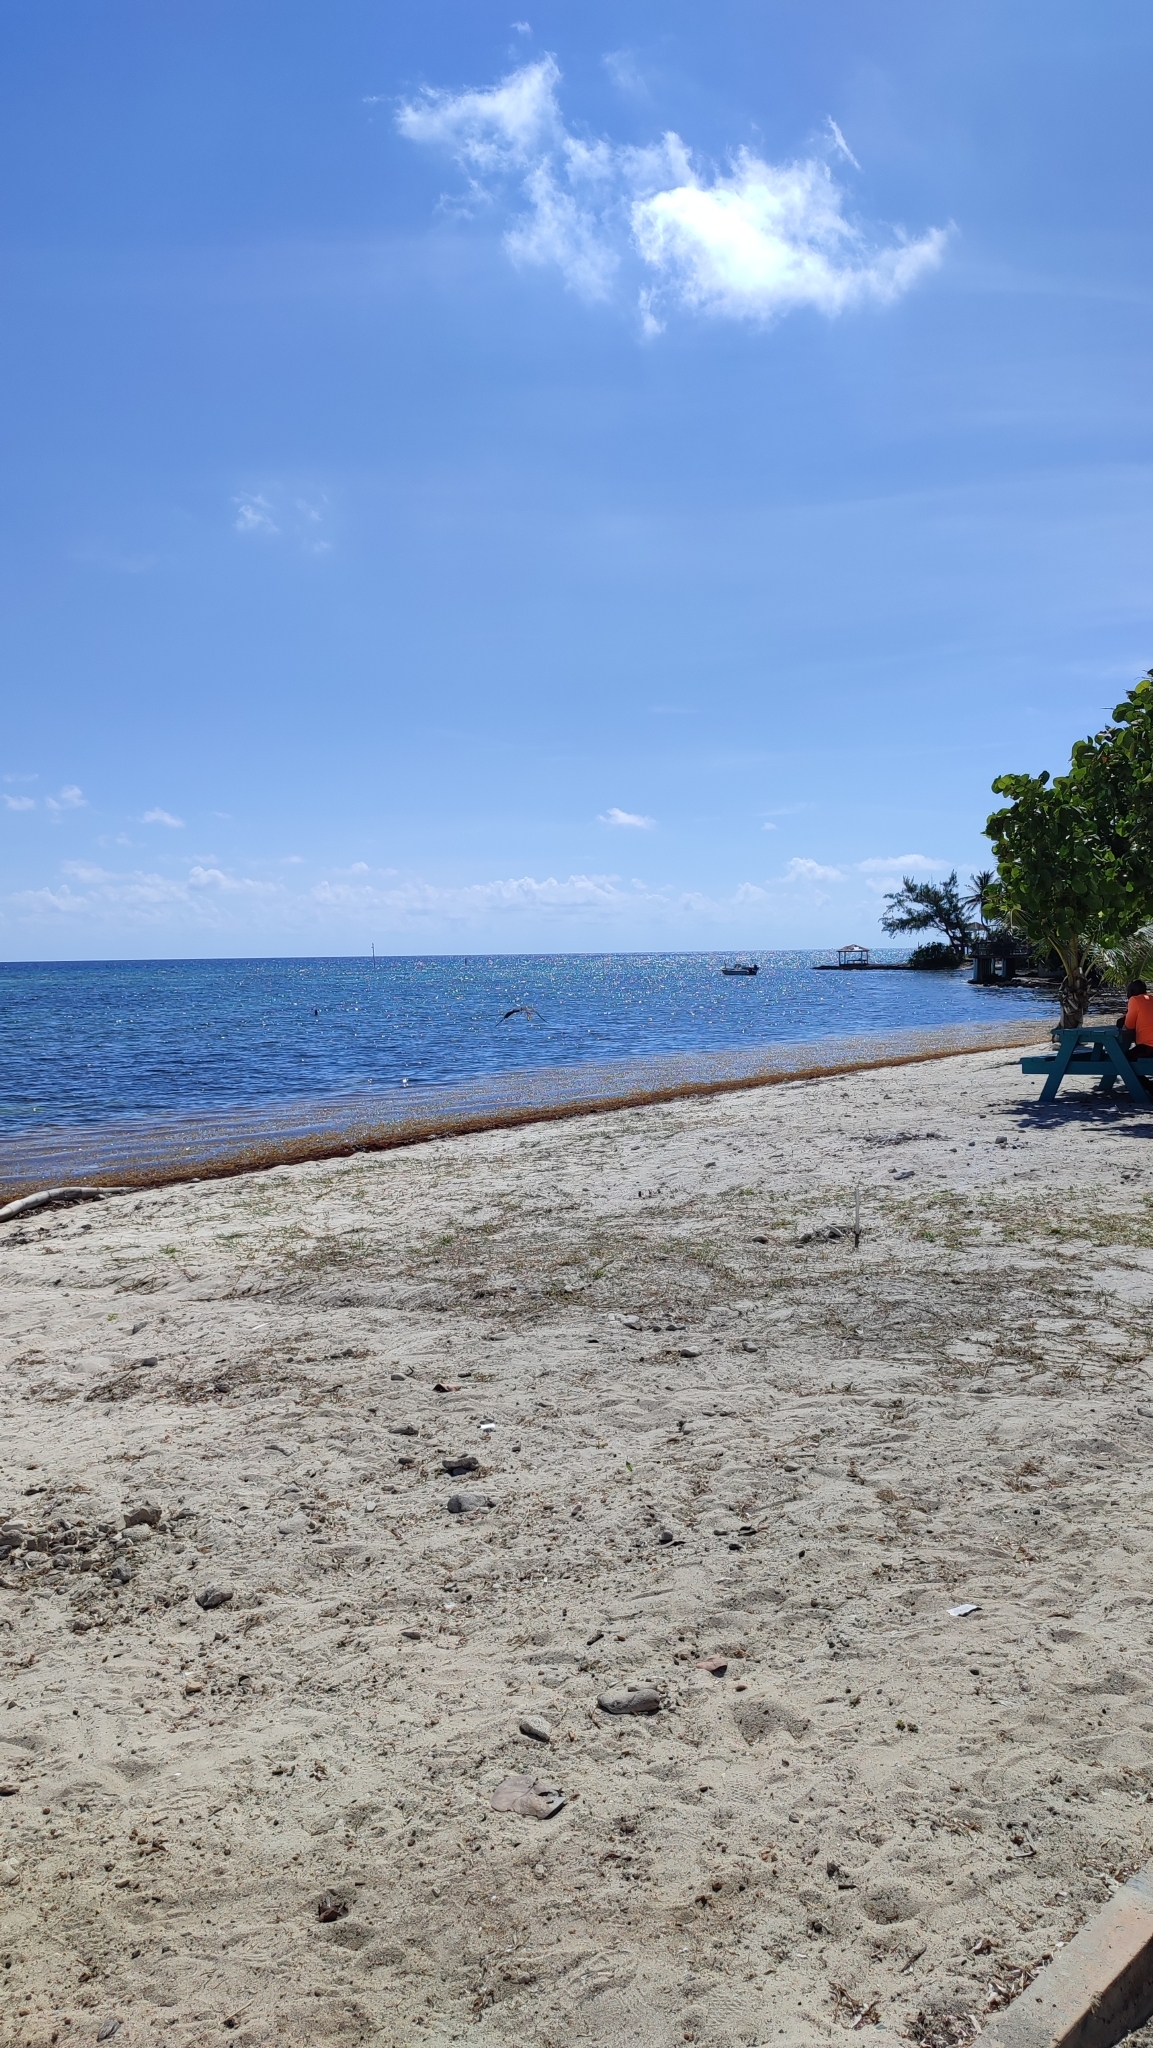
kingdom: Animalia
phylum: Chordata
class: Aves
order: Suliformes
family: Fregatidae
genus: Fregata
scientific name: Fregata magnificens
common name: Magnificent frigatebird
